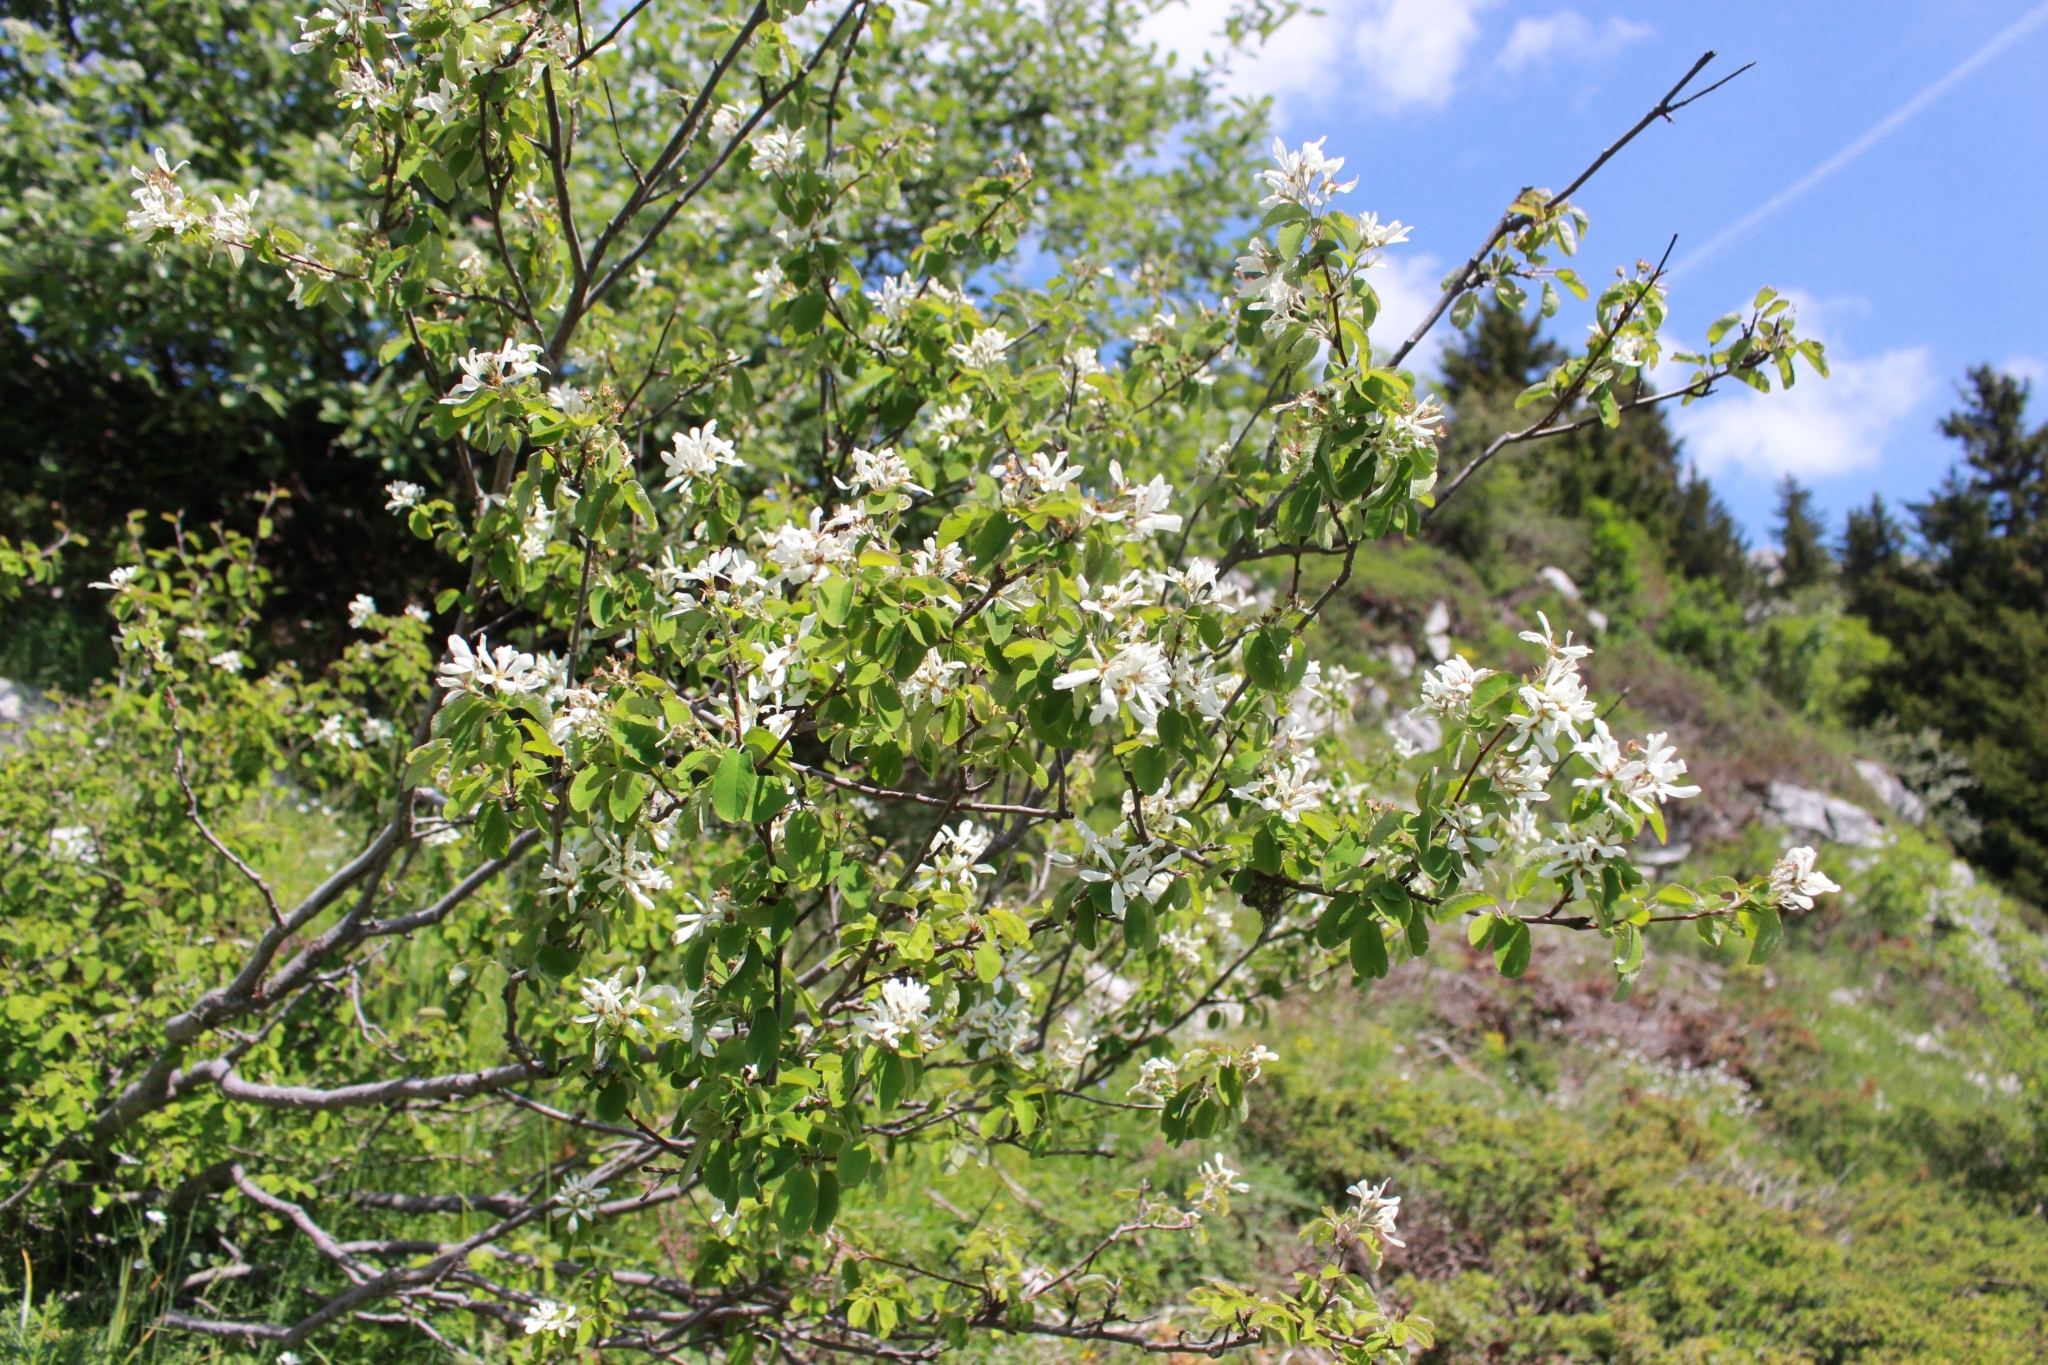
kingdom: Plantae
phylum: Tracheophyta
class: Magnoliopsida
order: Rosales
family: Rosaceae
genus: Amelanchier
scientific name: Amelanchier ovalis
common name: Serviceberry
